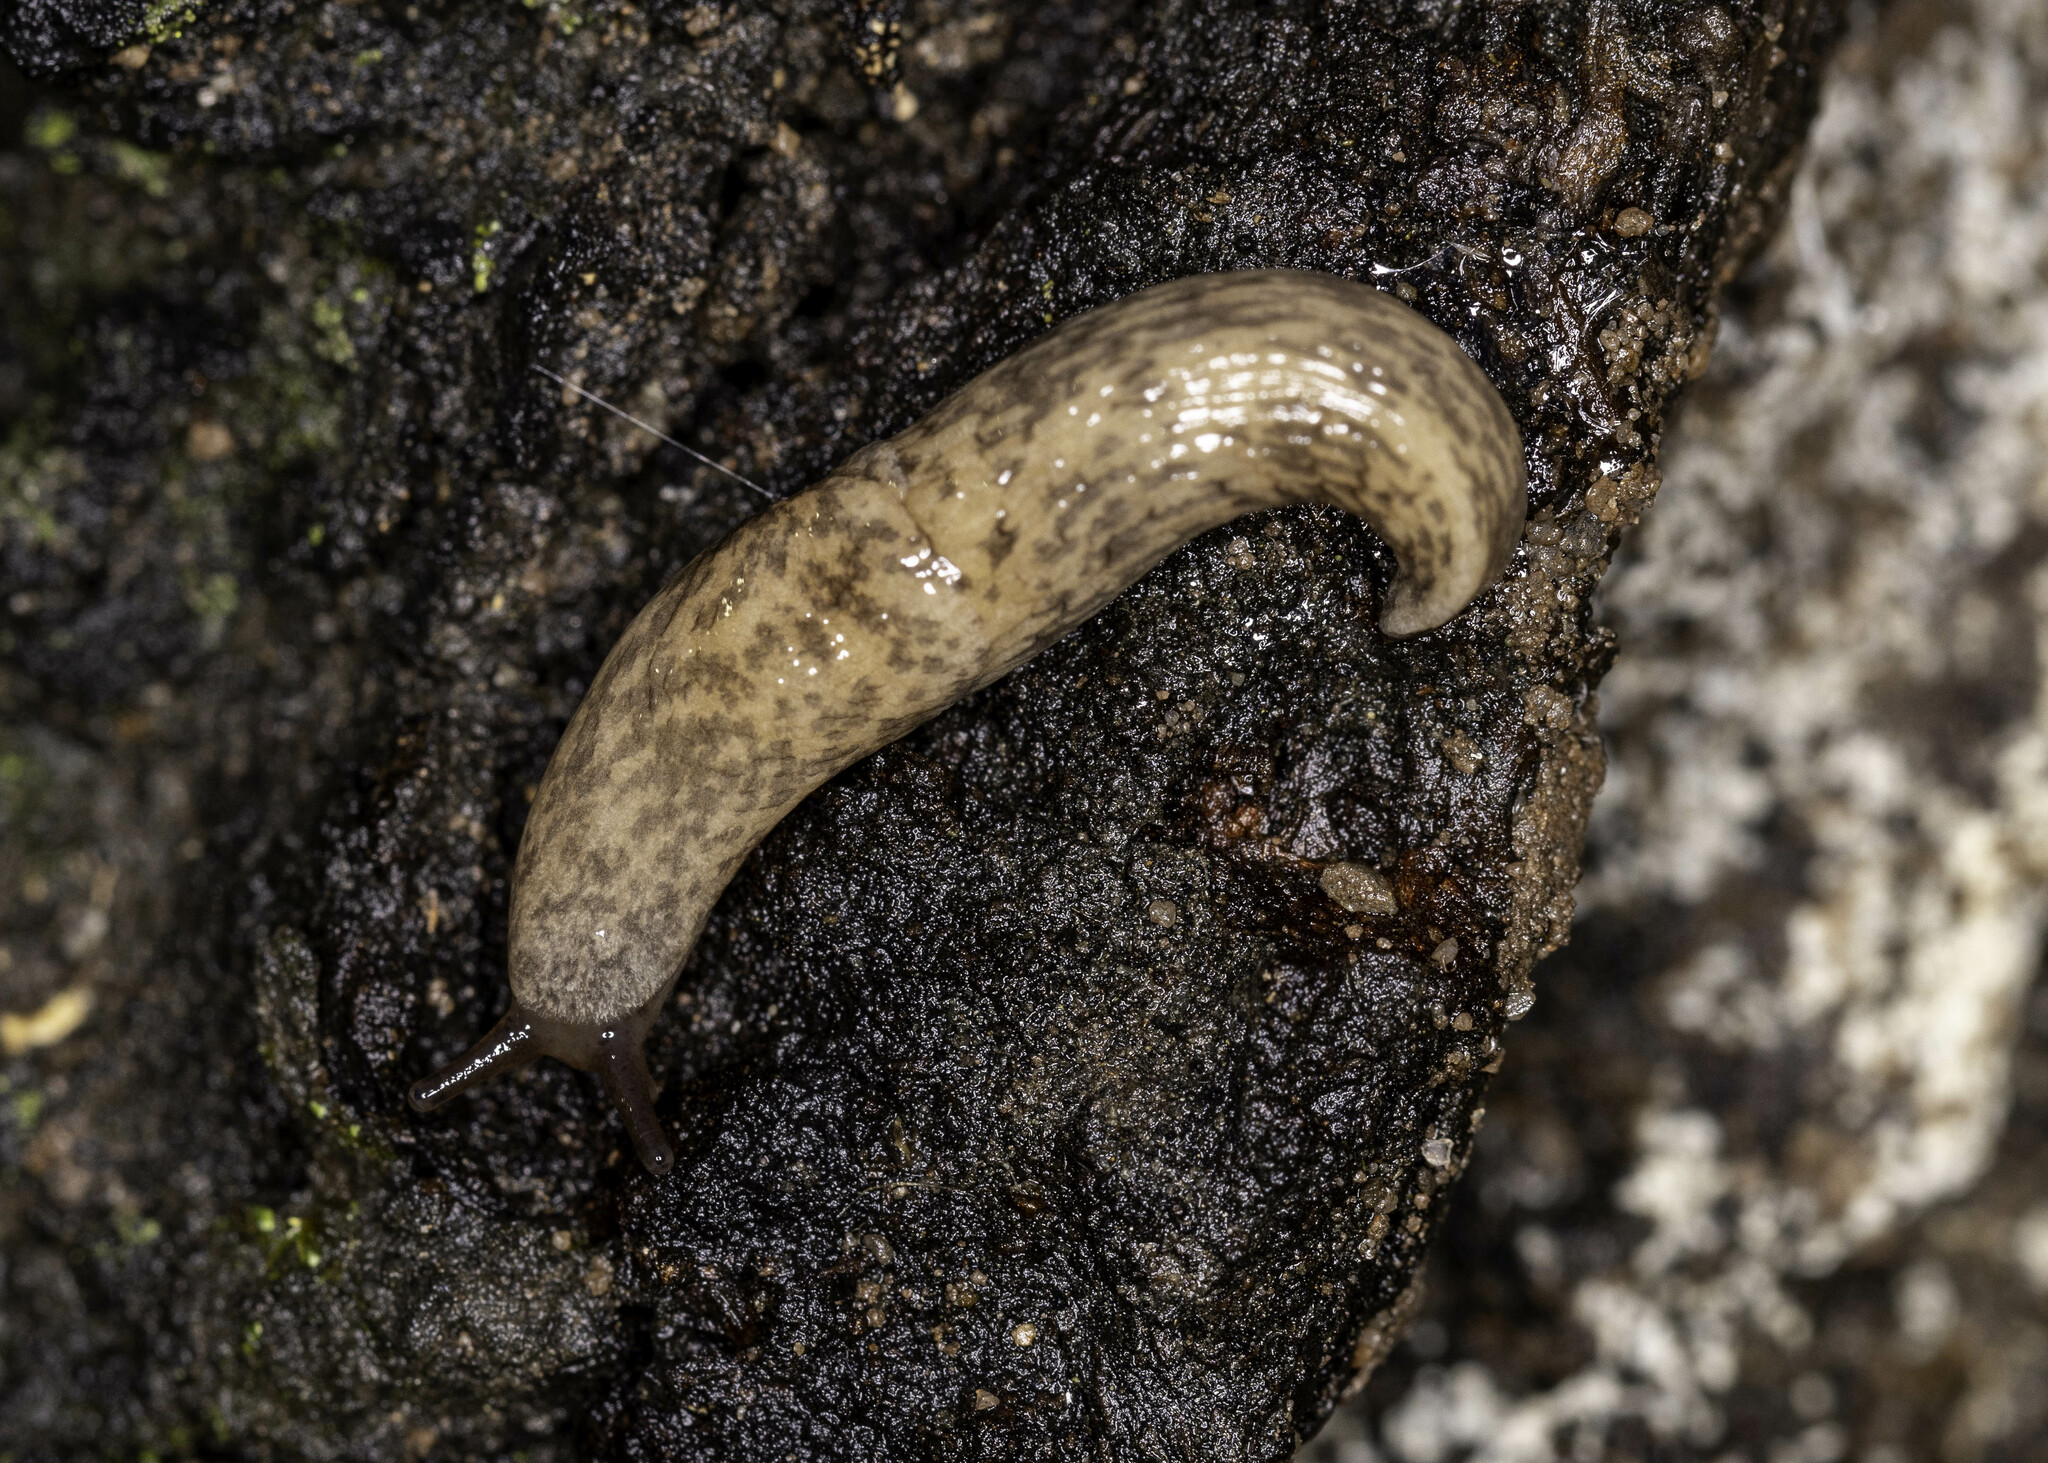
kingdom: Animalia
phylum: Mollusca
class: Gastropoda
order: Stylommatophora
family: Agriolimacidae
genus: Deroceras
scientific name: Deroceras reticulatum
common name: Gray field slug
